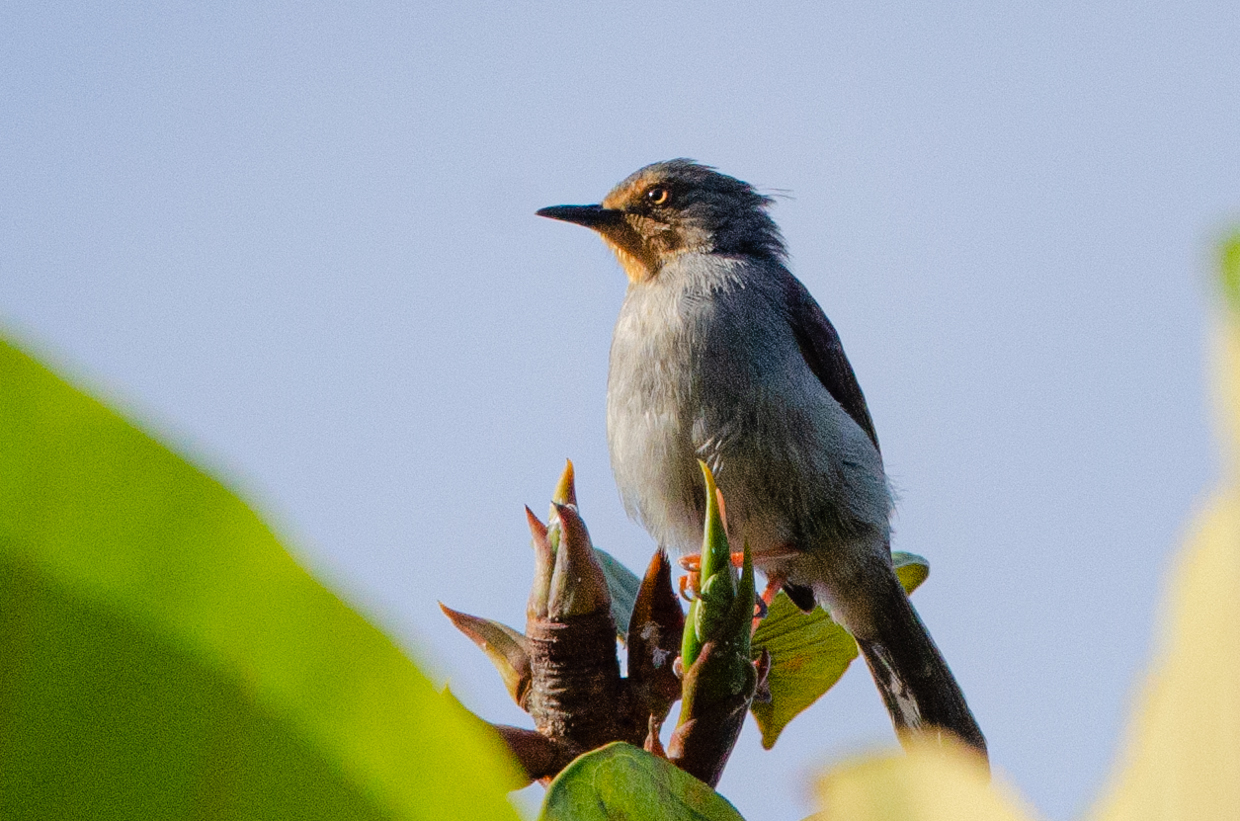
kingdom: Animalia
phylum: Chordata
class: Aves
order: Passeriformes
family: Cisticolidae
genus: Apalis
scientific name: Apalis bamendae
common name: Bamenda apalis
